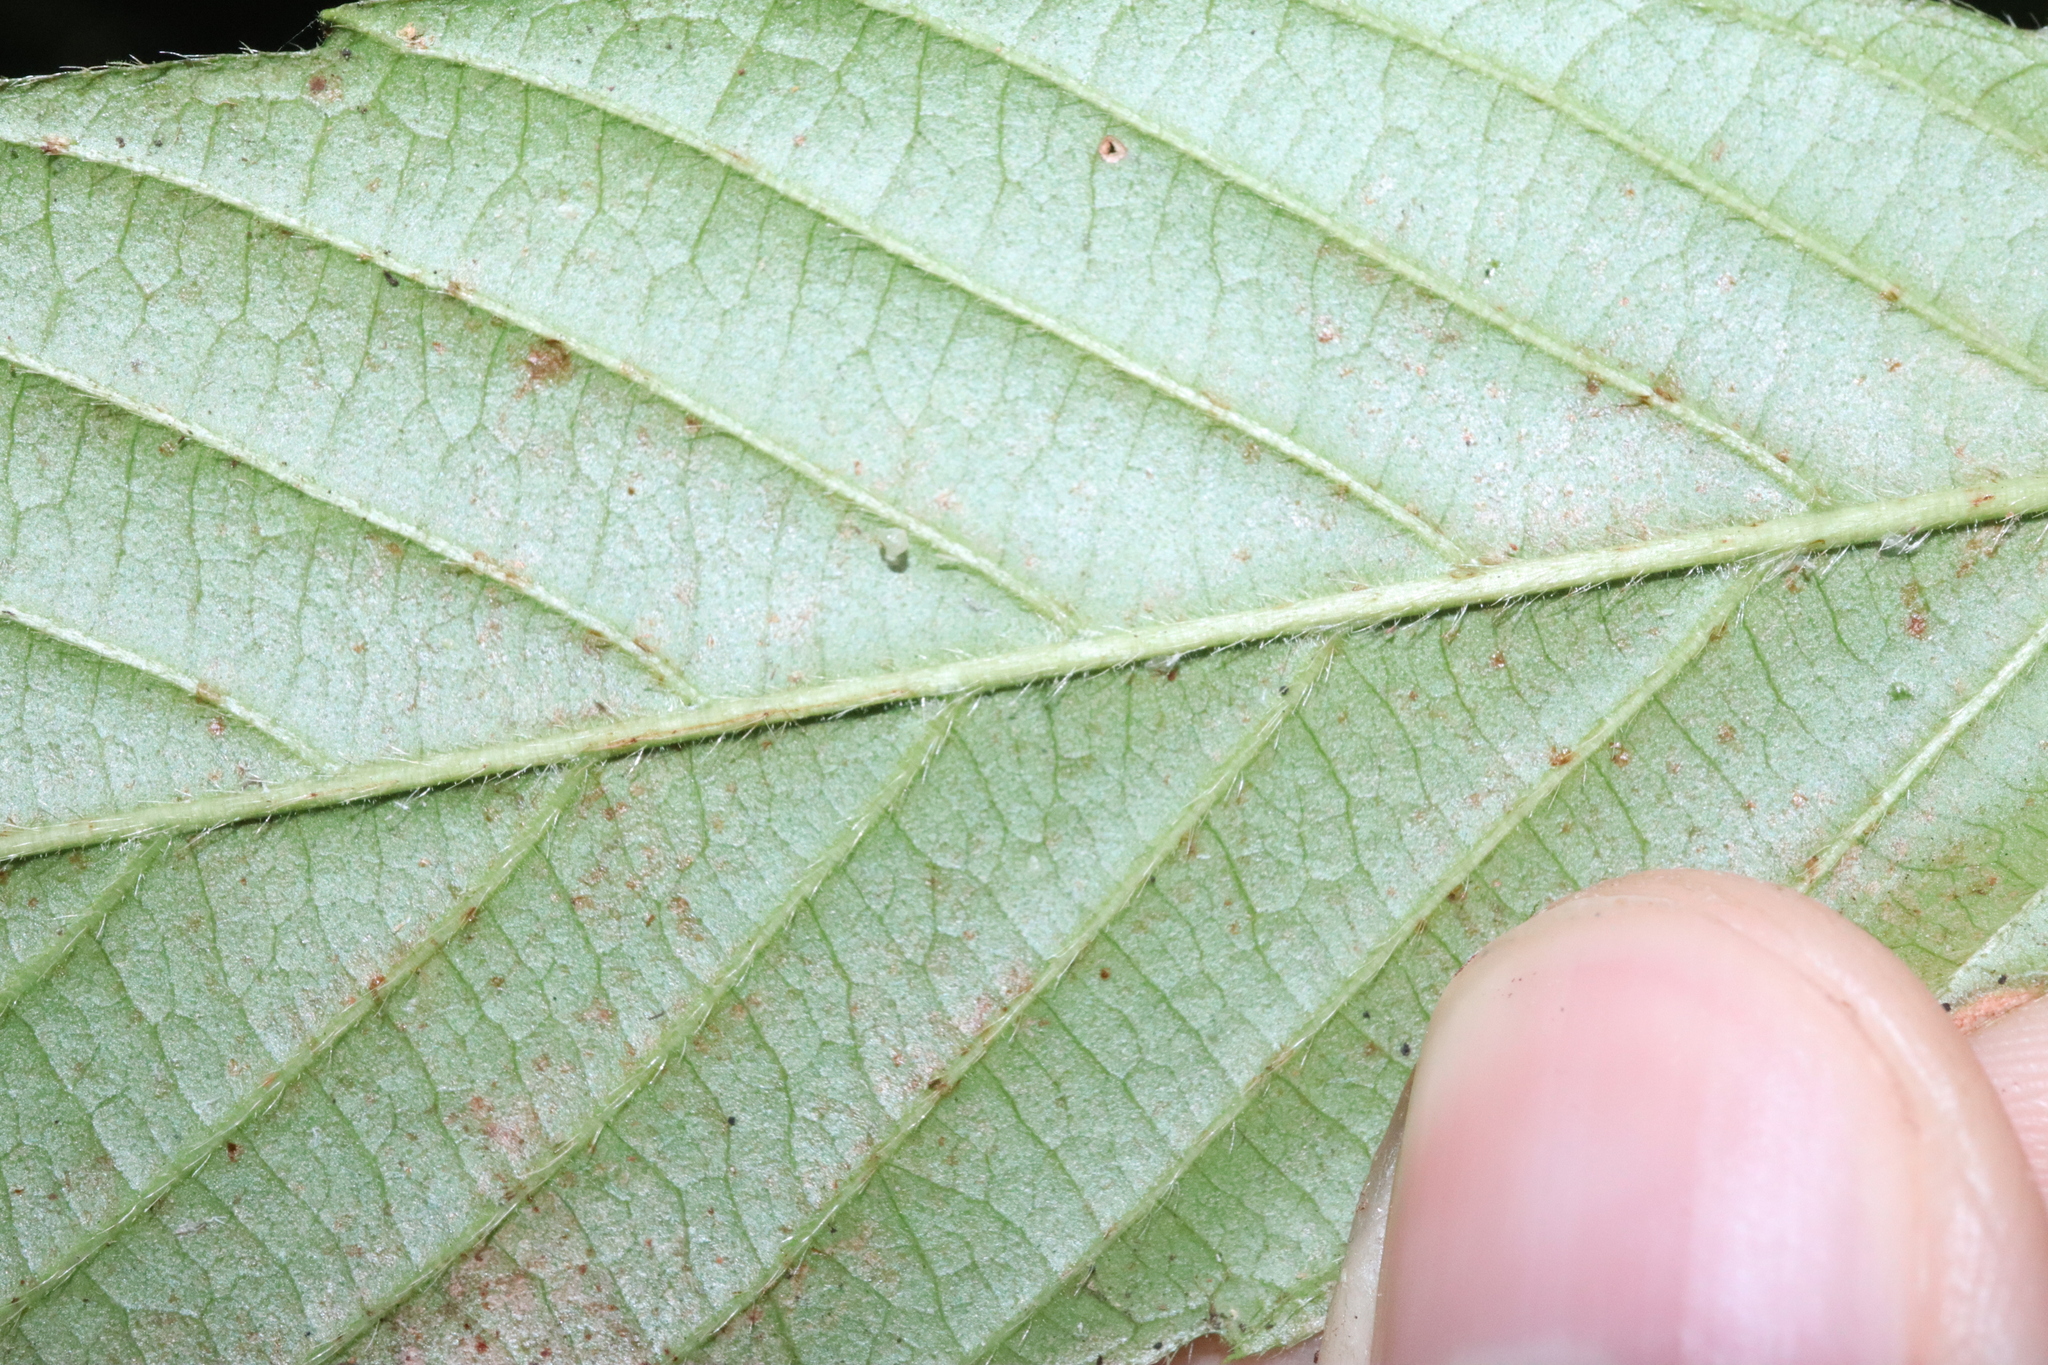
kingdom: Plantae
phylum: Tracheophyta
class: Magnoliopsida
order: Dilleniales
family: Dilleniaceae
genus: Tetracera
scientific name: Tetracera nordtiana
